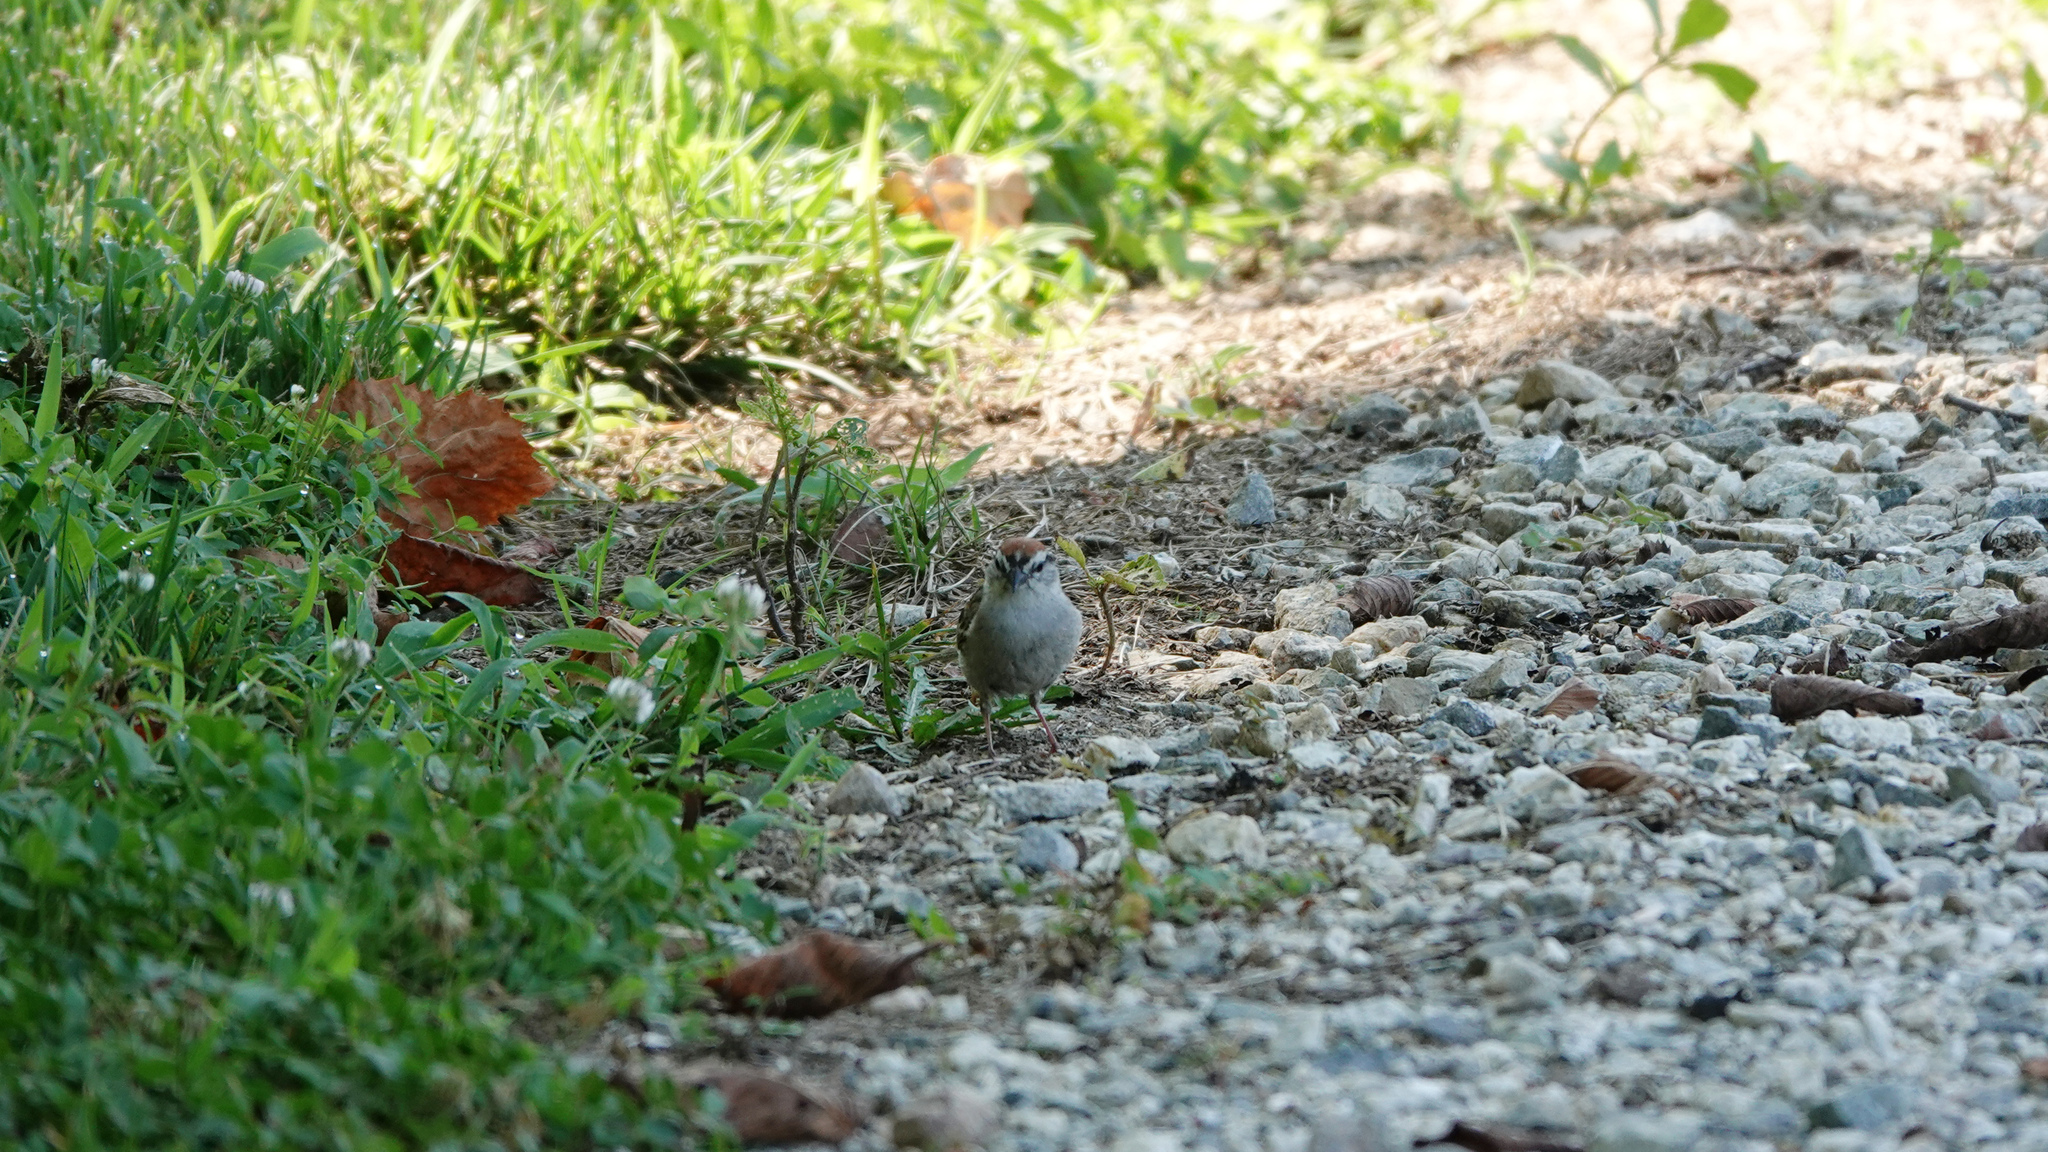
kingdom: Animalia
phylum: Chordata
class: Aves
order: Passeriformes
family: Passerellidae
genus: Spizella
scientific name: Spizella passerina
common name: Chipping sparrow
